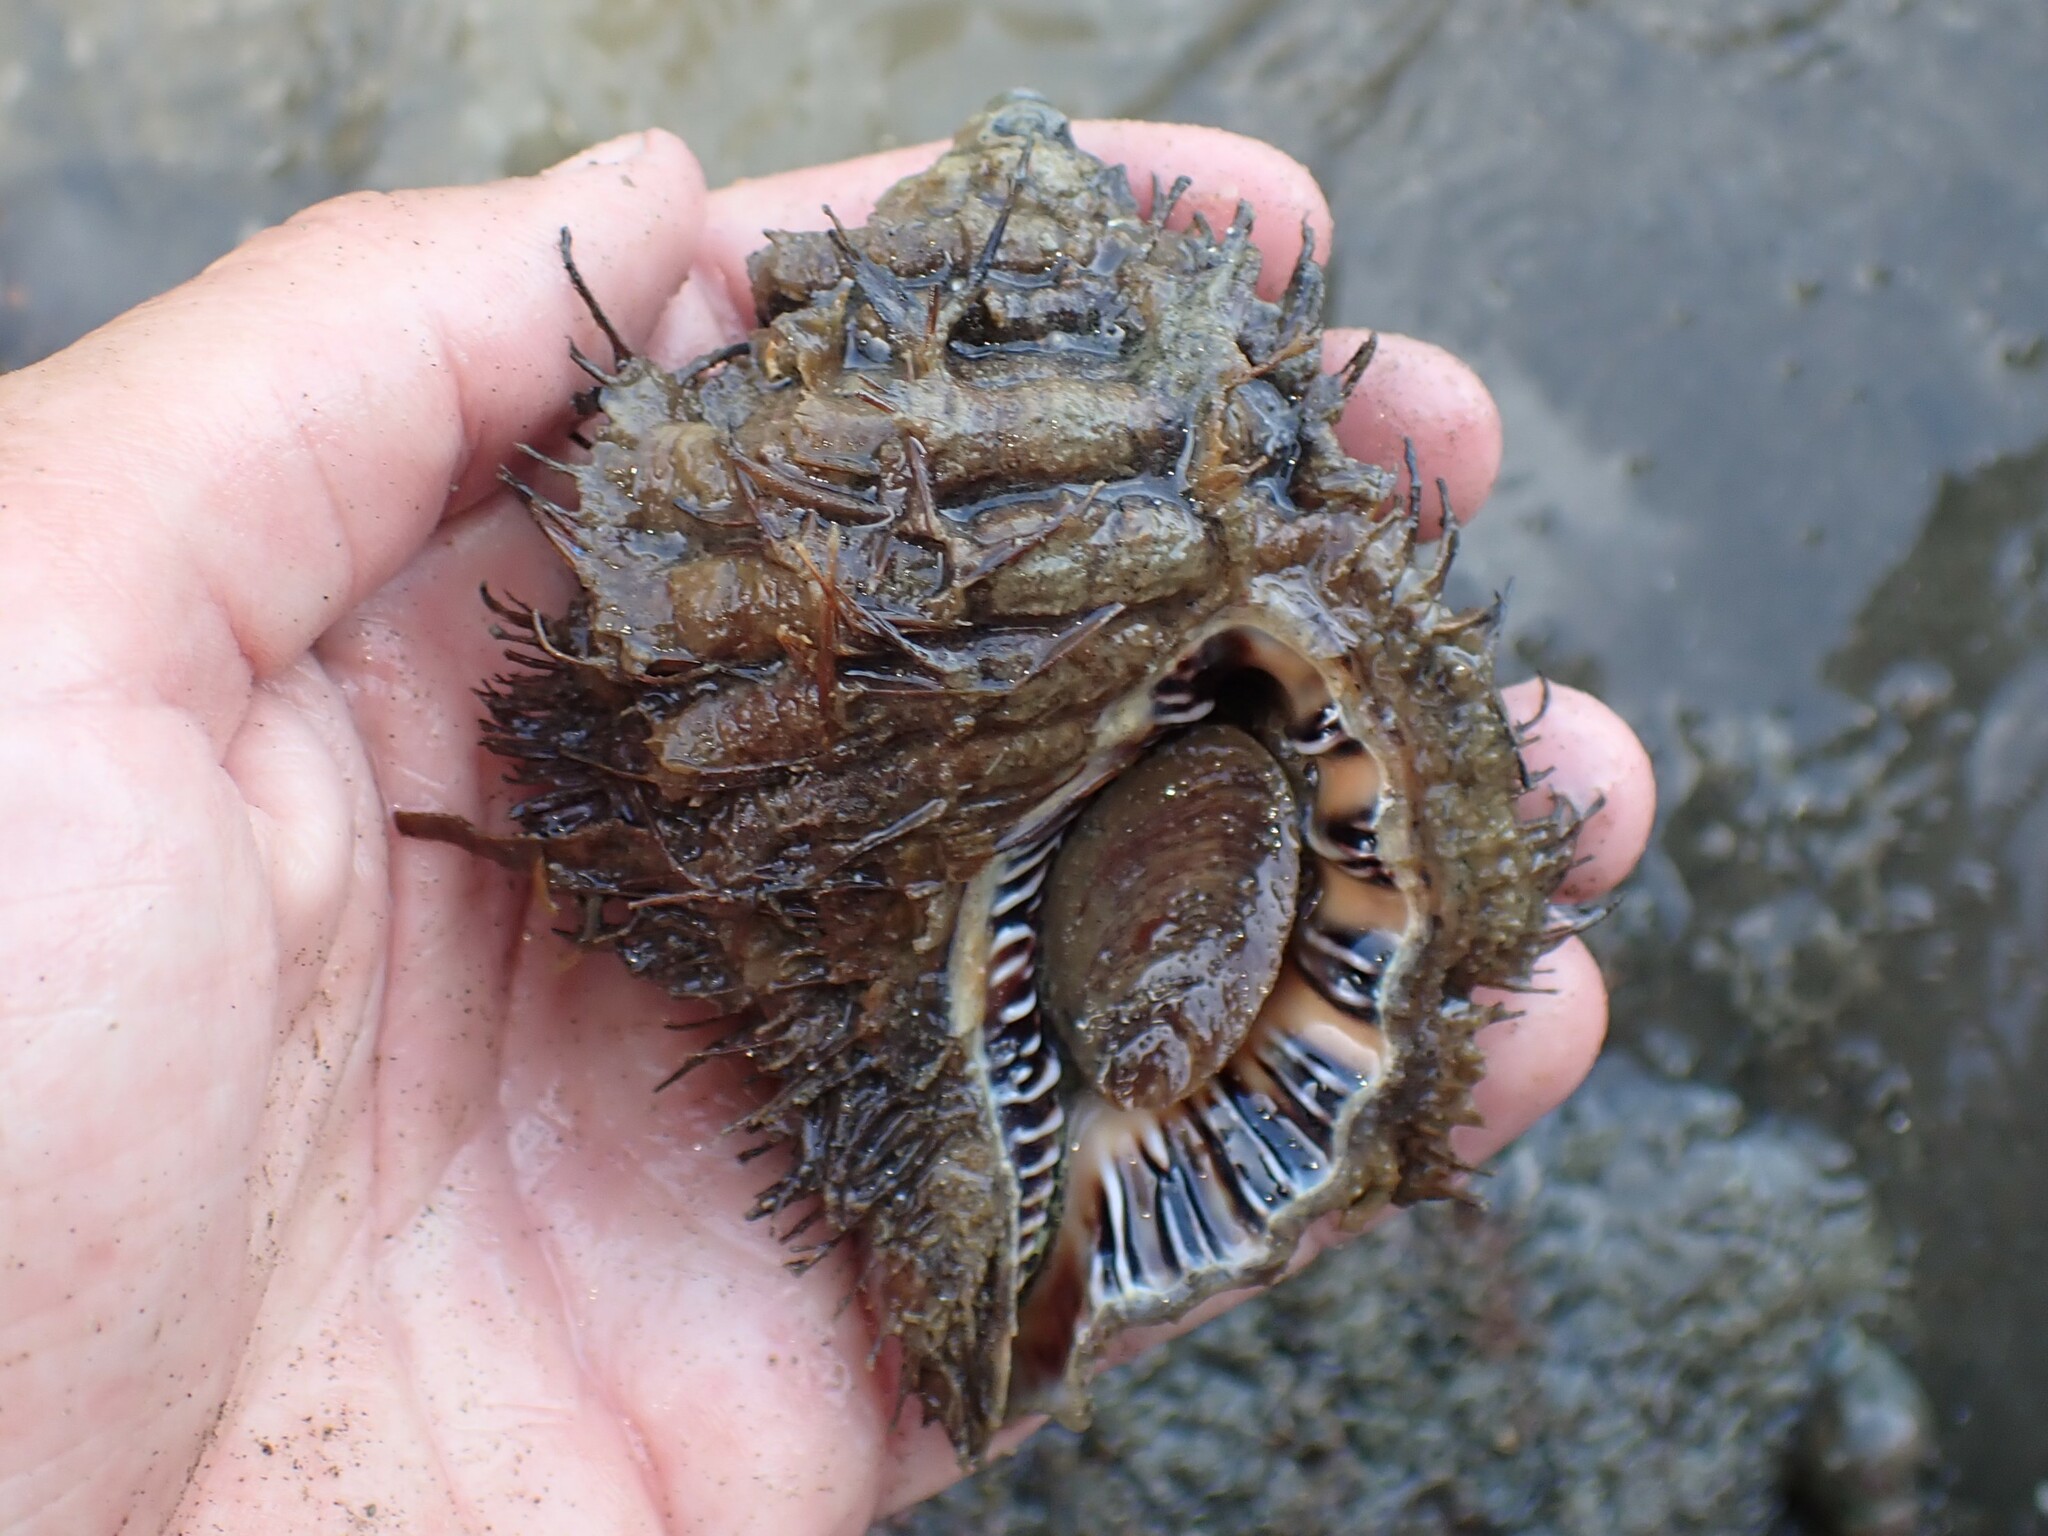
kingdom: Animalia
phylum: Mollusca
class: Gastropoda
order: Littorinimorpha
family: Cymatiidae
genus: Monoplex
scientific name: Monoplex parthenopeus
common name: Giant triton
